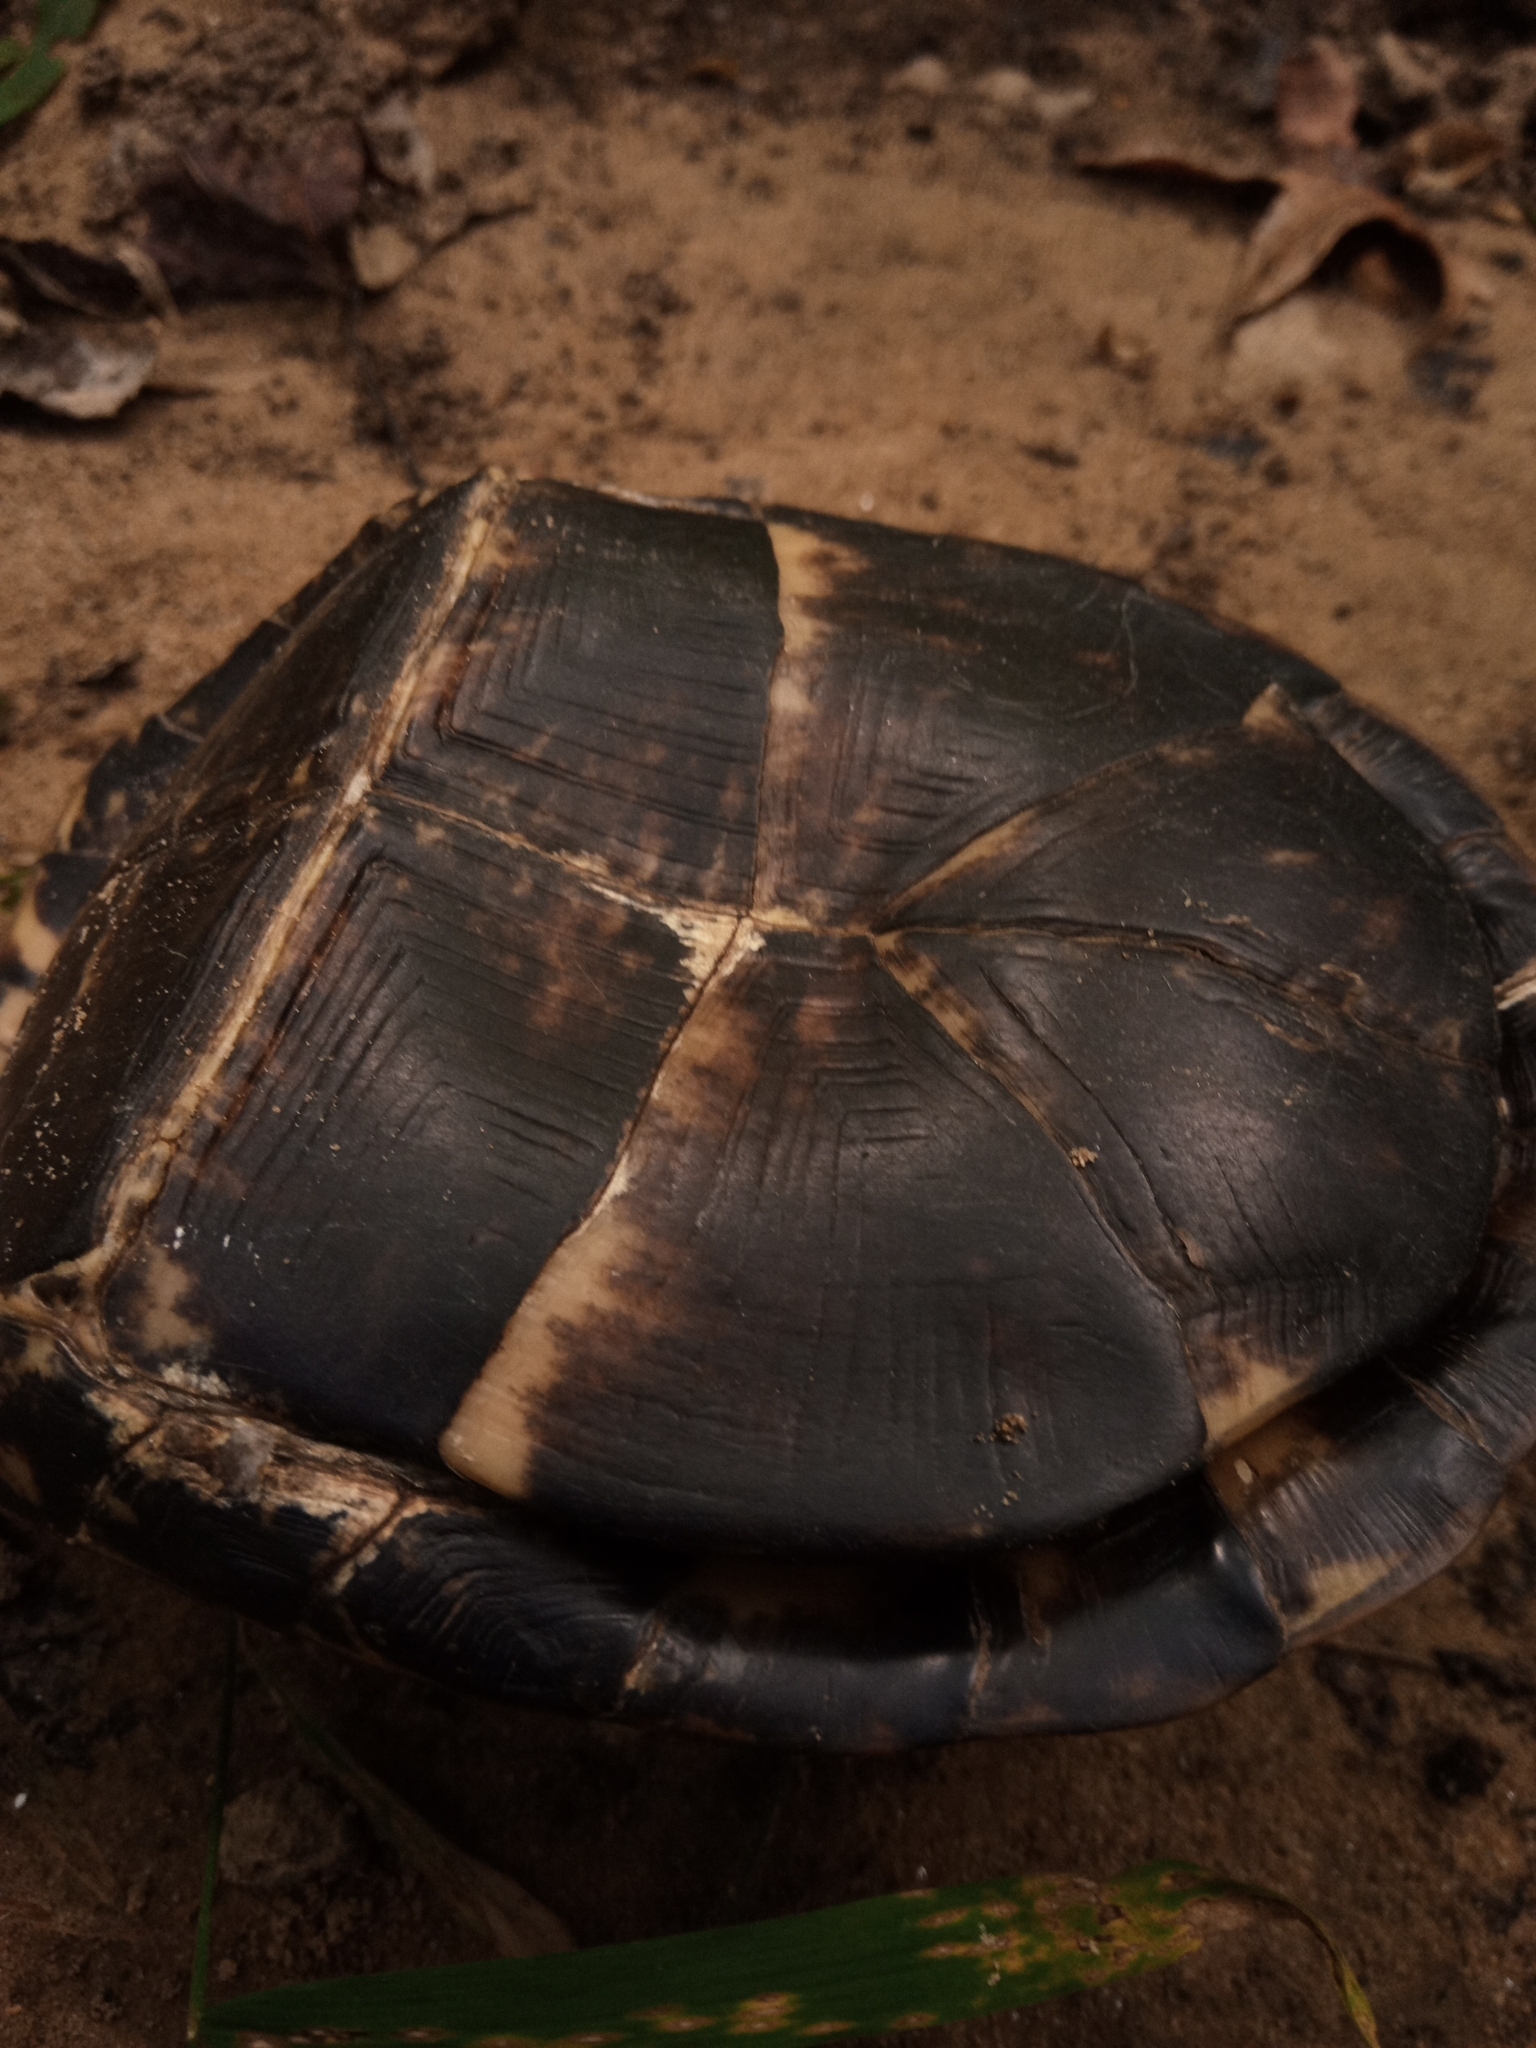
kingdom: Animalia
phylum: Chordata
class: Testudines
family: Emydidae
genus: Terrapene
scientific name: Terrapene carolina
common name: Common box turtle
